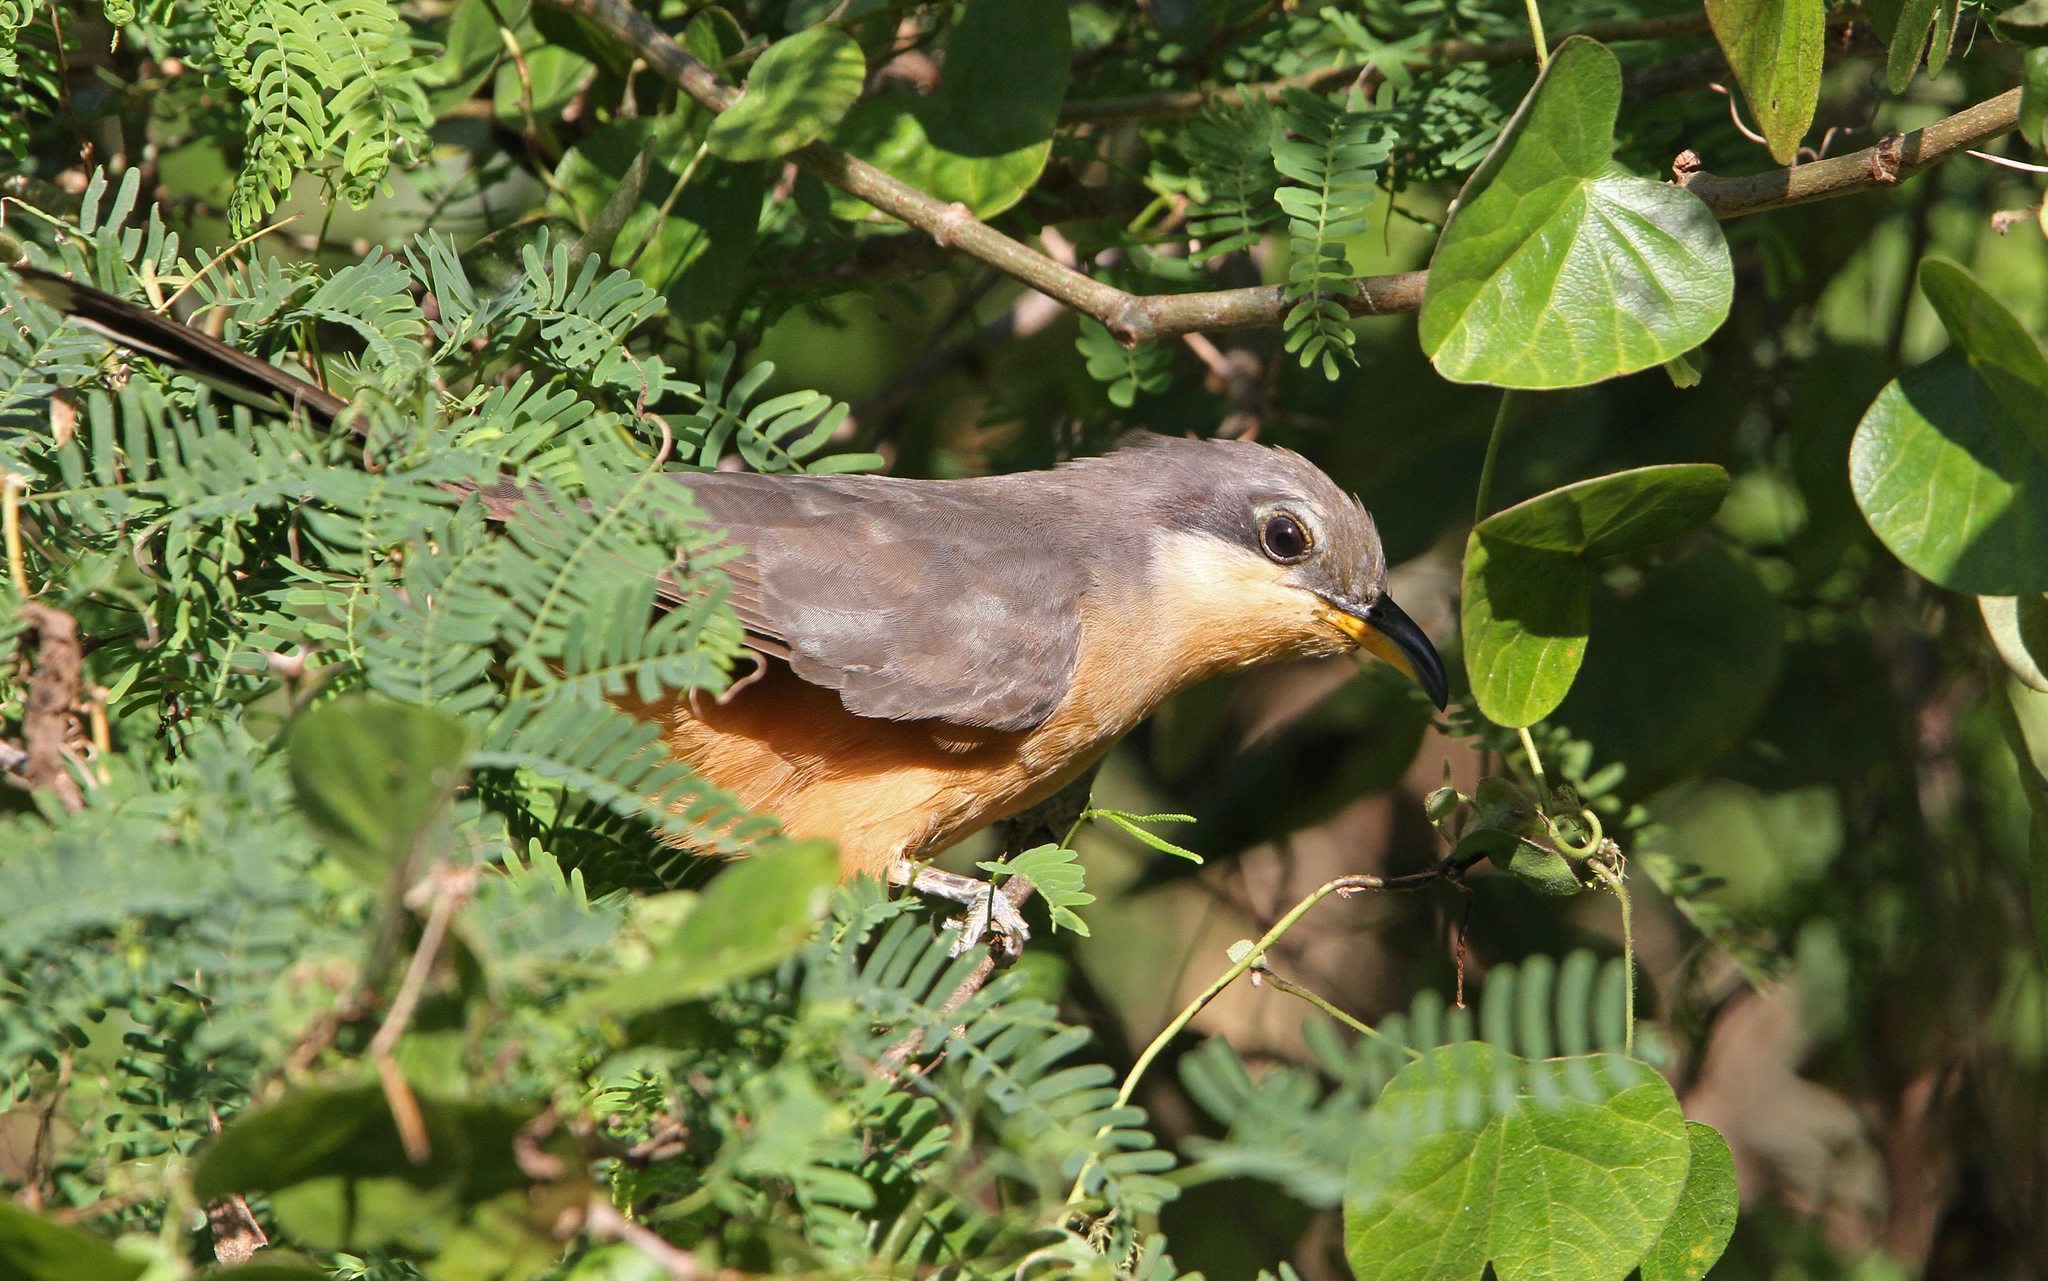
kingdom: Animalia
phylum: Chordata
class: Aves
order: Cuculiformes
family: Cuculidae
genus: Coccyzus
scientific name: Coccyzus minor
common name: Mangrove cuckoo
